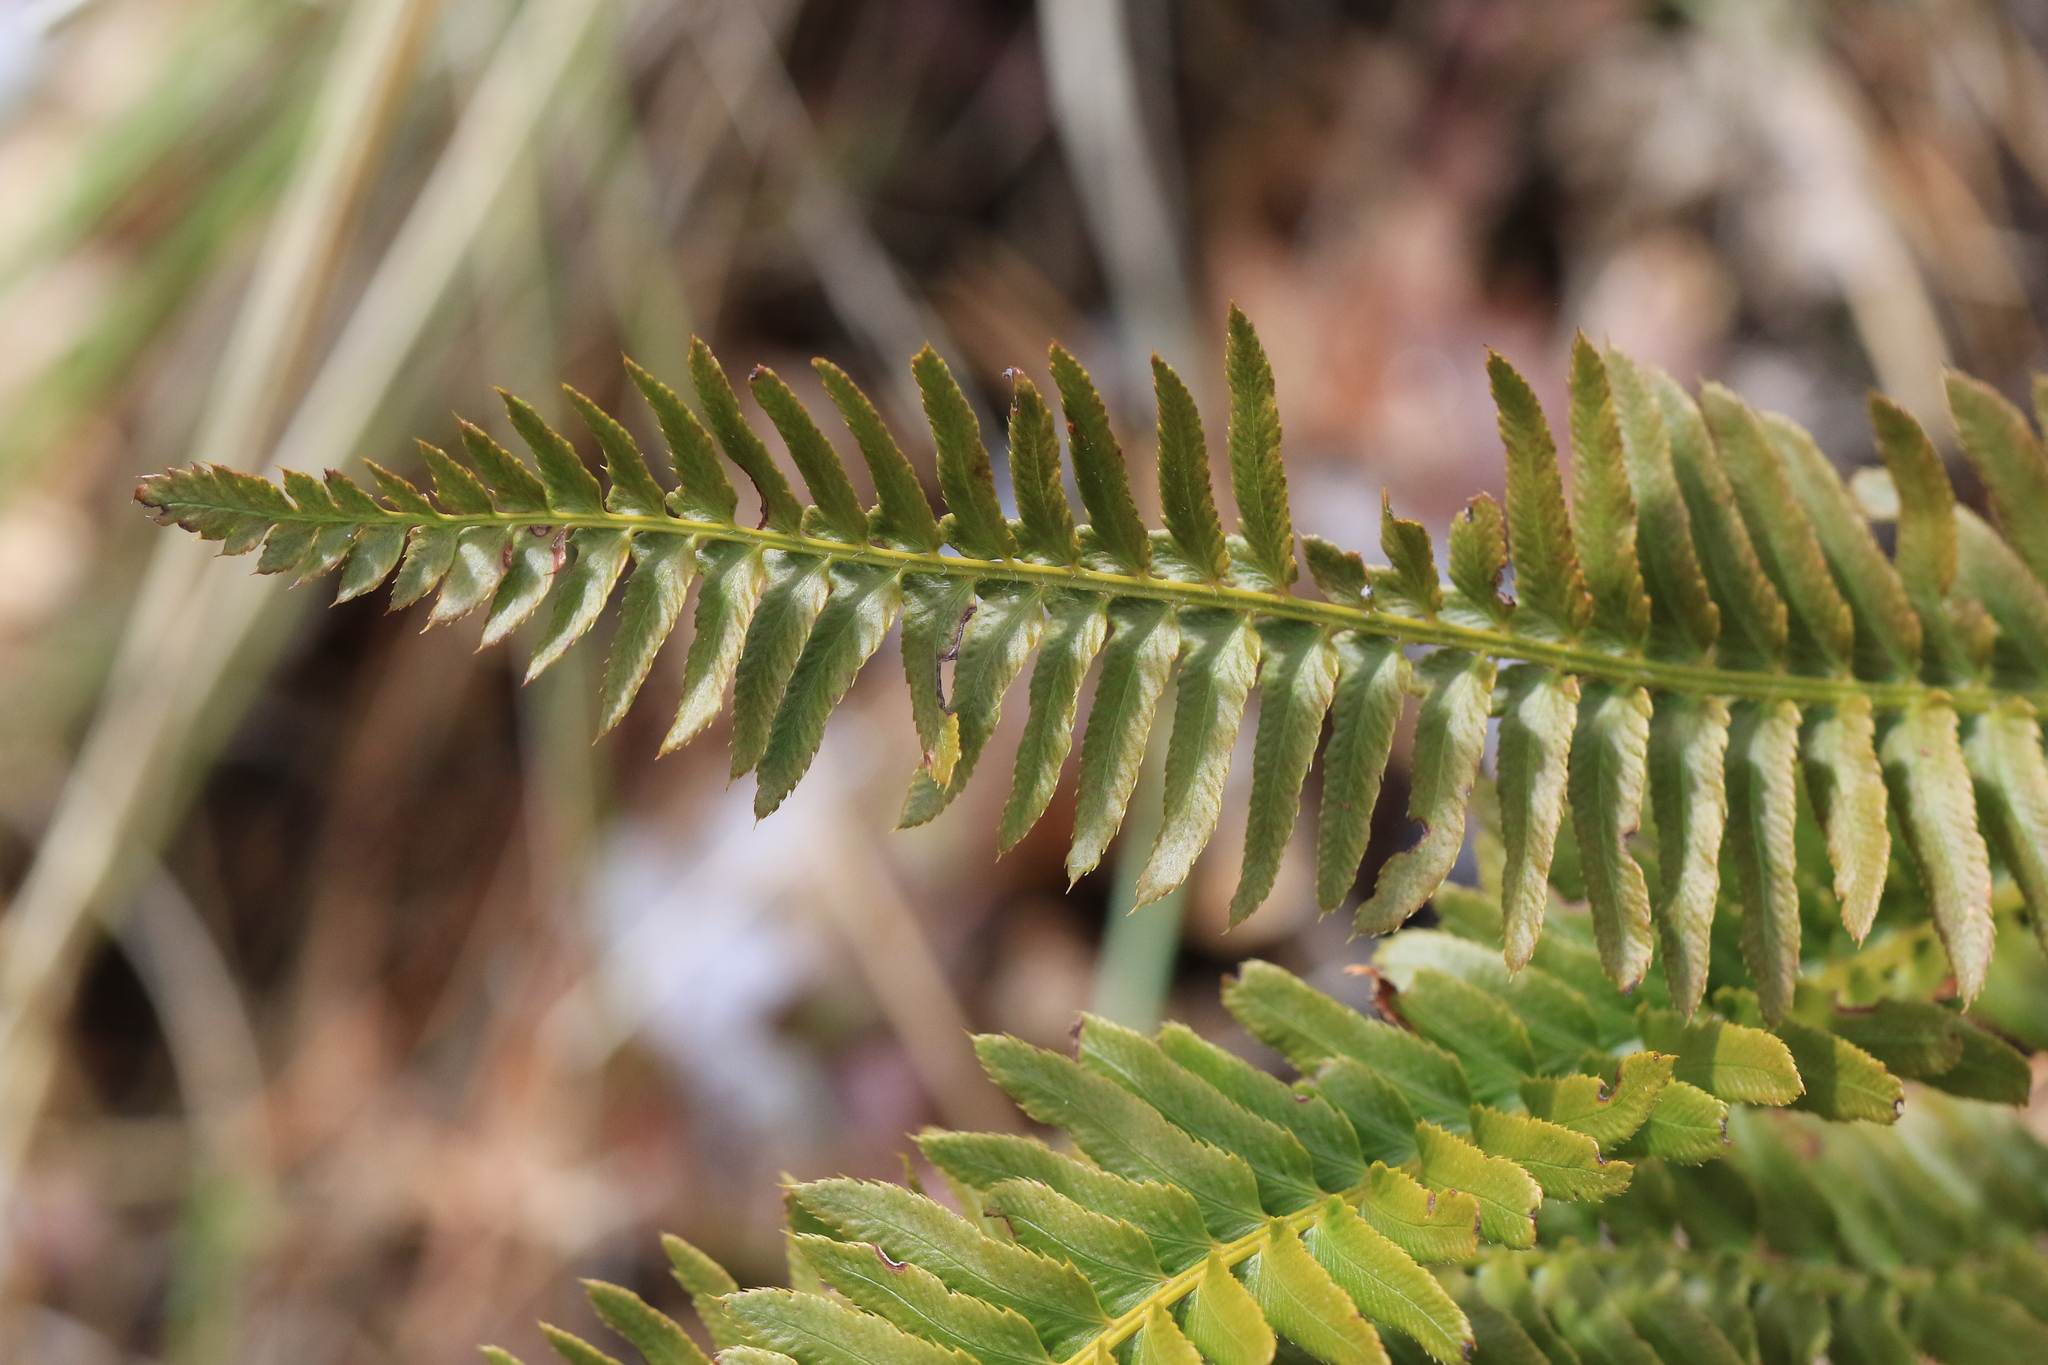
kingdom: Plantae
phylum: Tracheophyta
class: Polypodiopsida
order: Polypodiales
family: Dryopteridaceae
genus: Polystichum
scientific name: Polystichum imbricans
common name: Dwarf western sword fern
